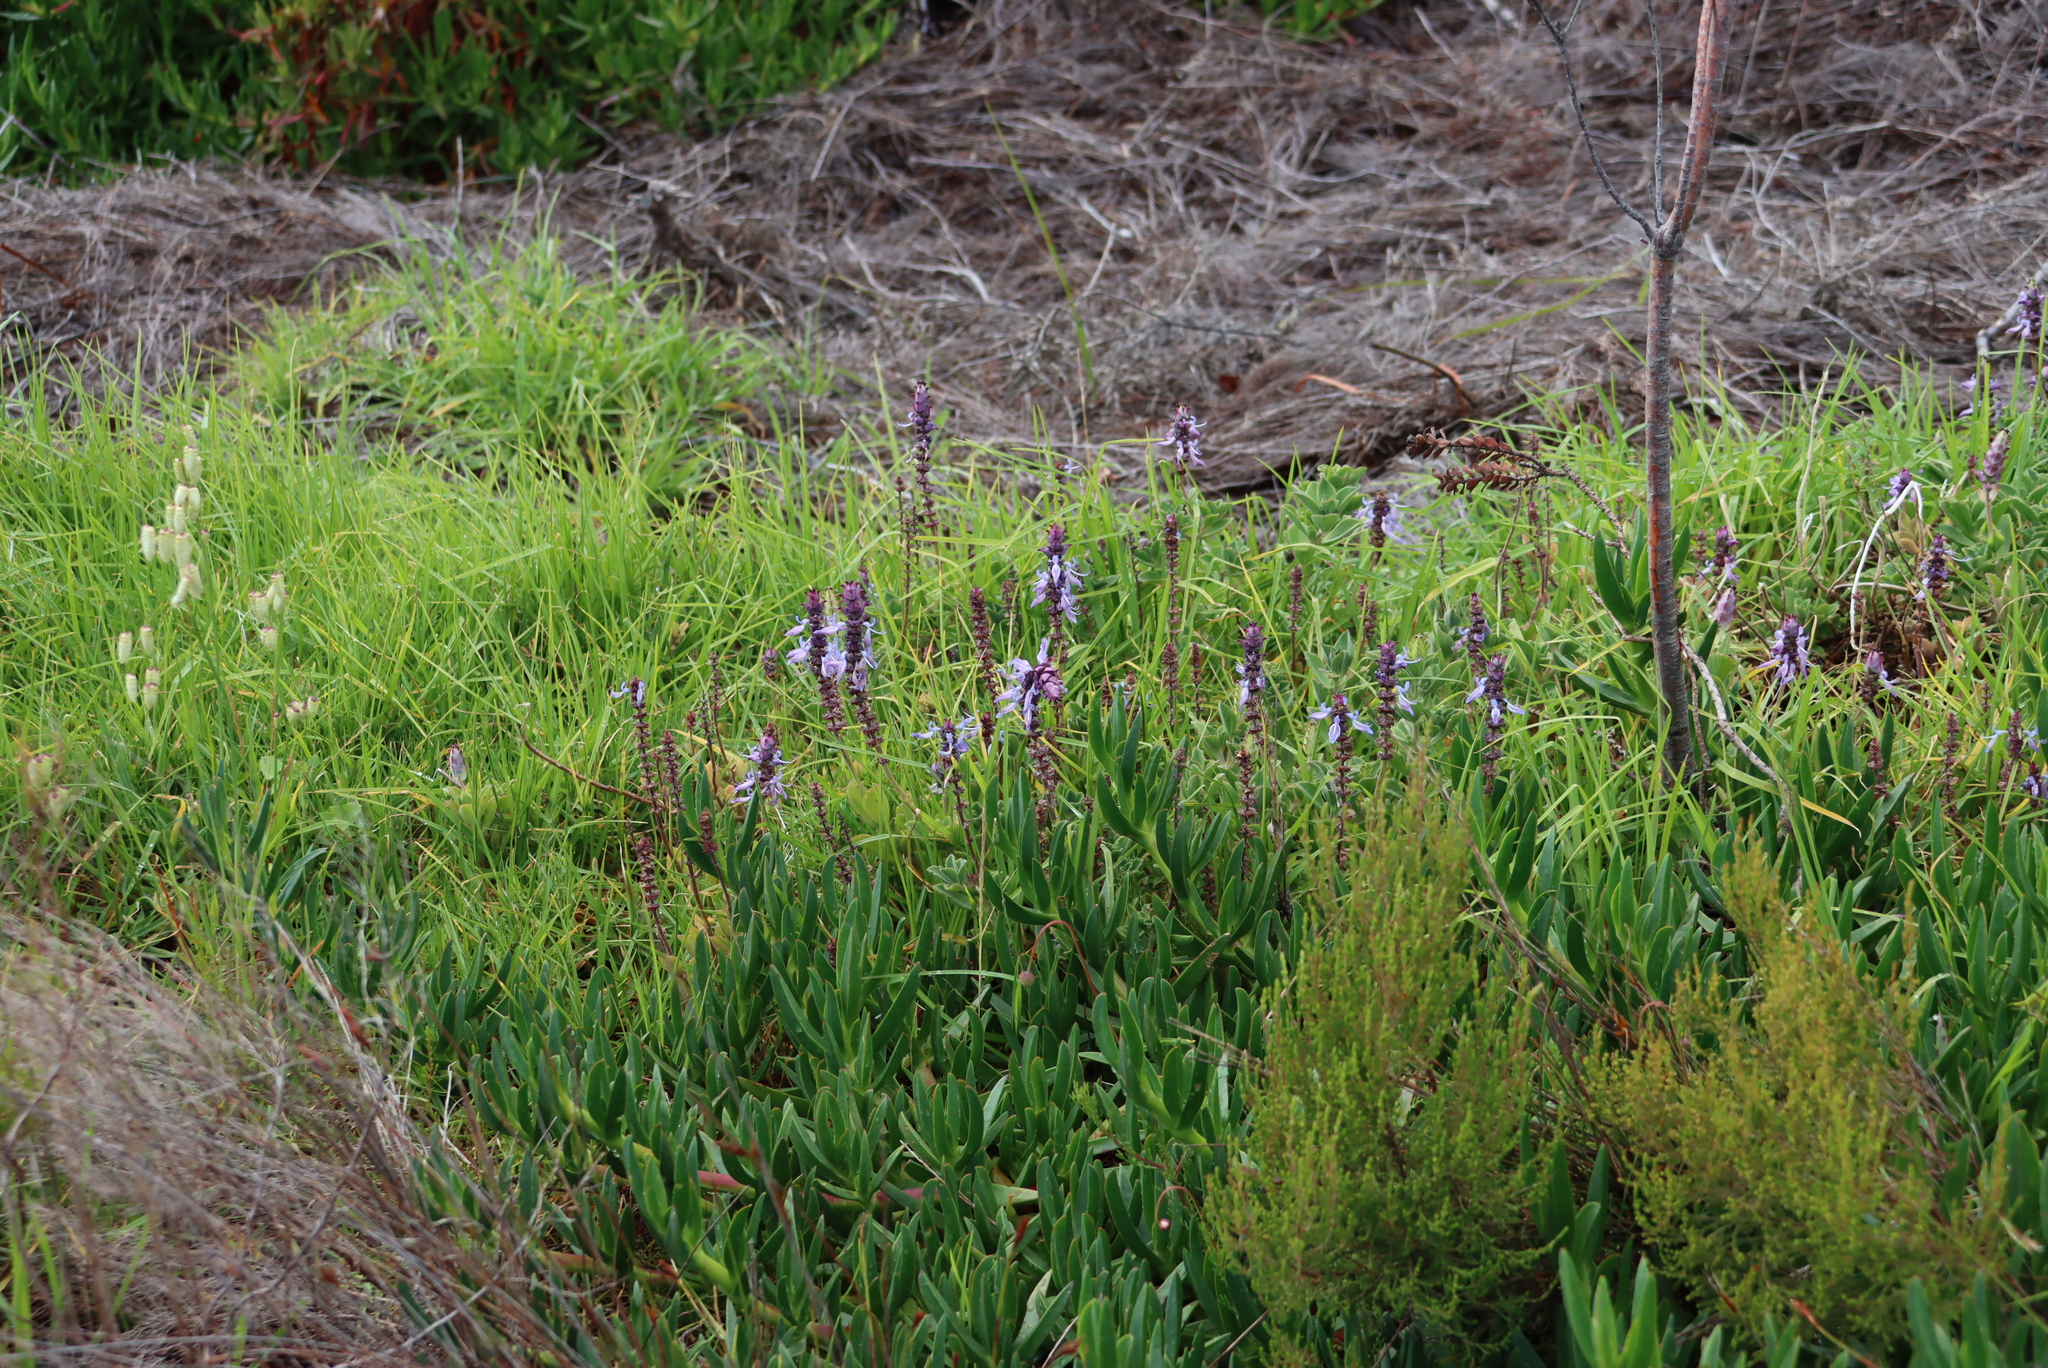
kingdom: Plantae
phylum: Tracheophyta
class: Magnoliopsida
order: Lamiales
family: Lamiaceae
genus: Coleus
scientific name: Coleus neochilus
